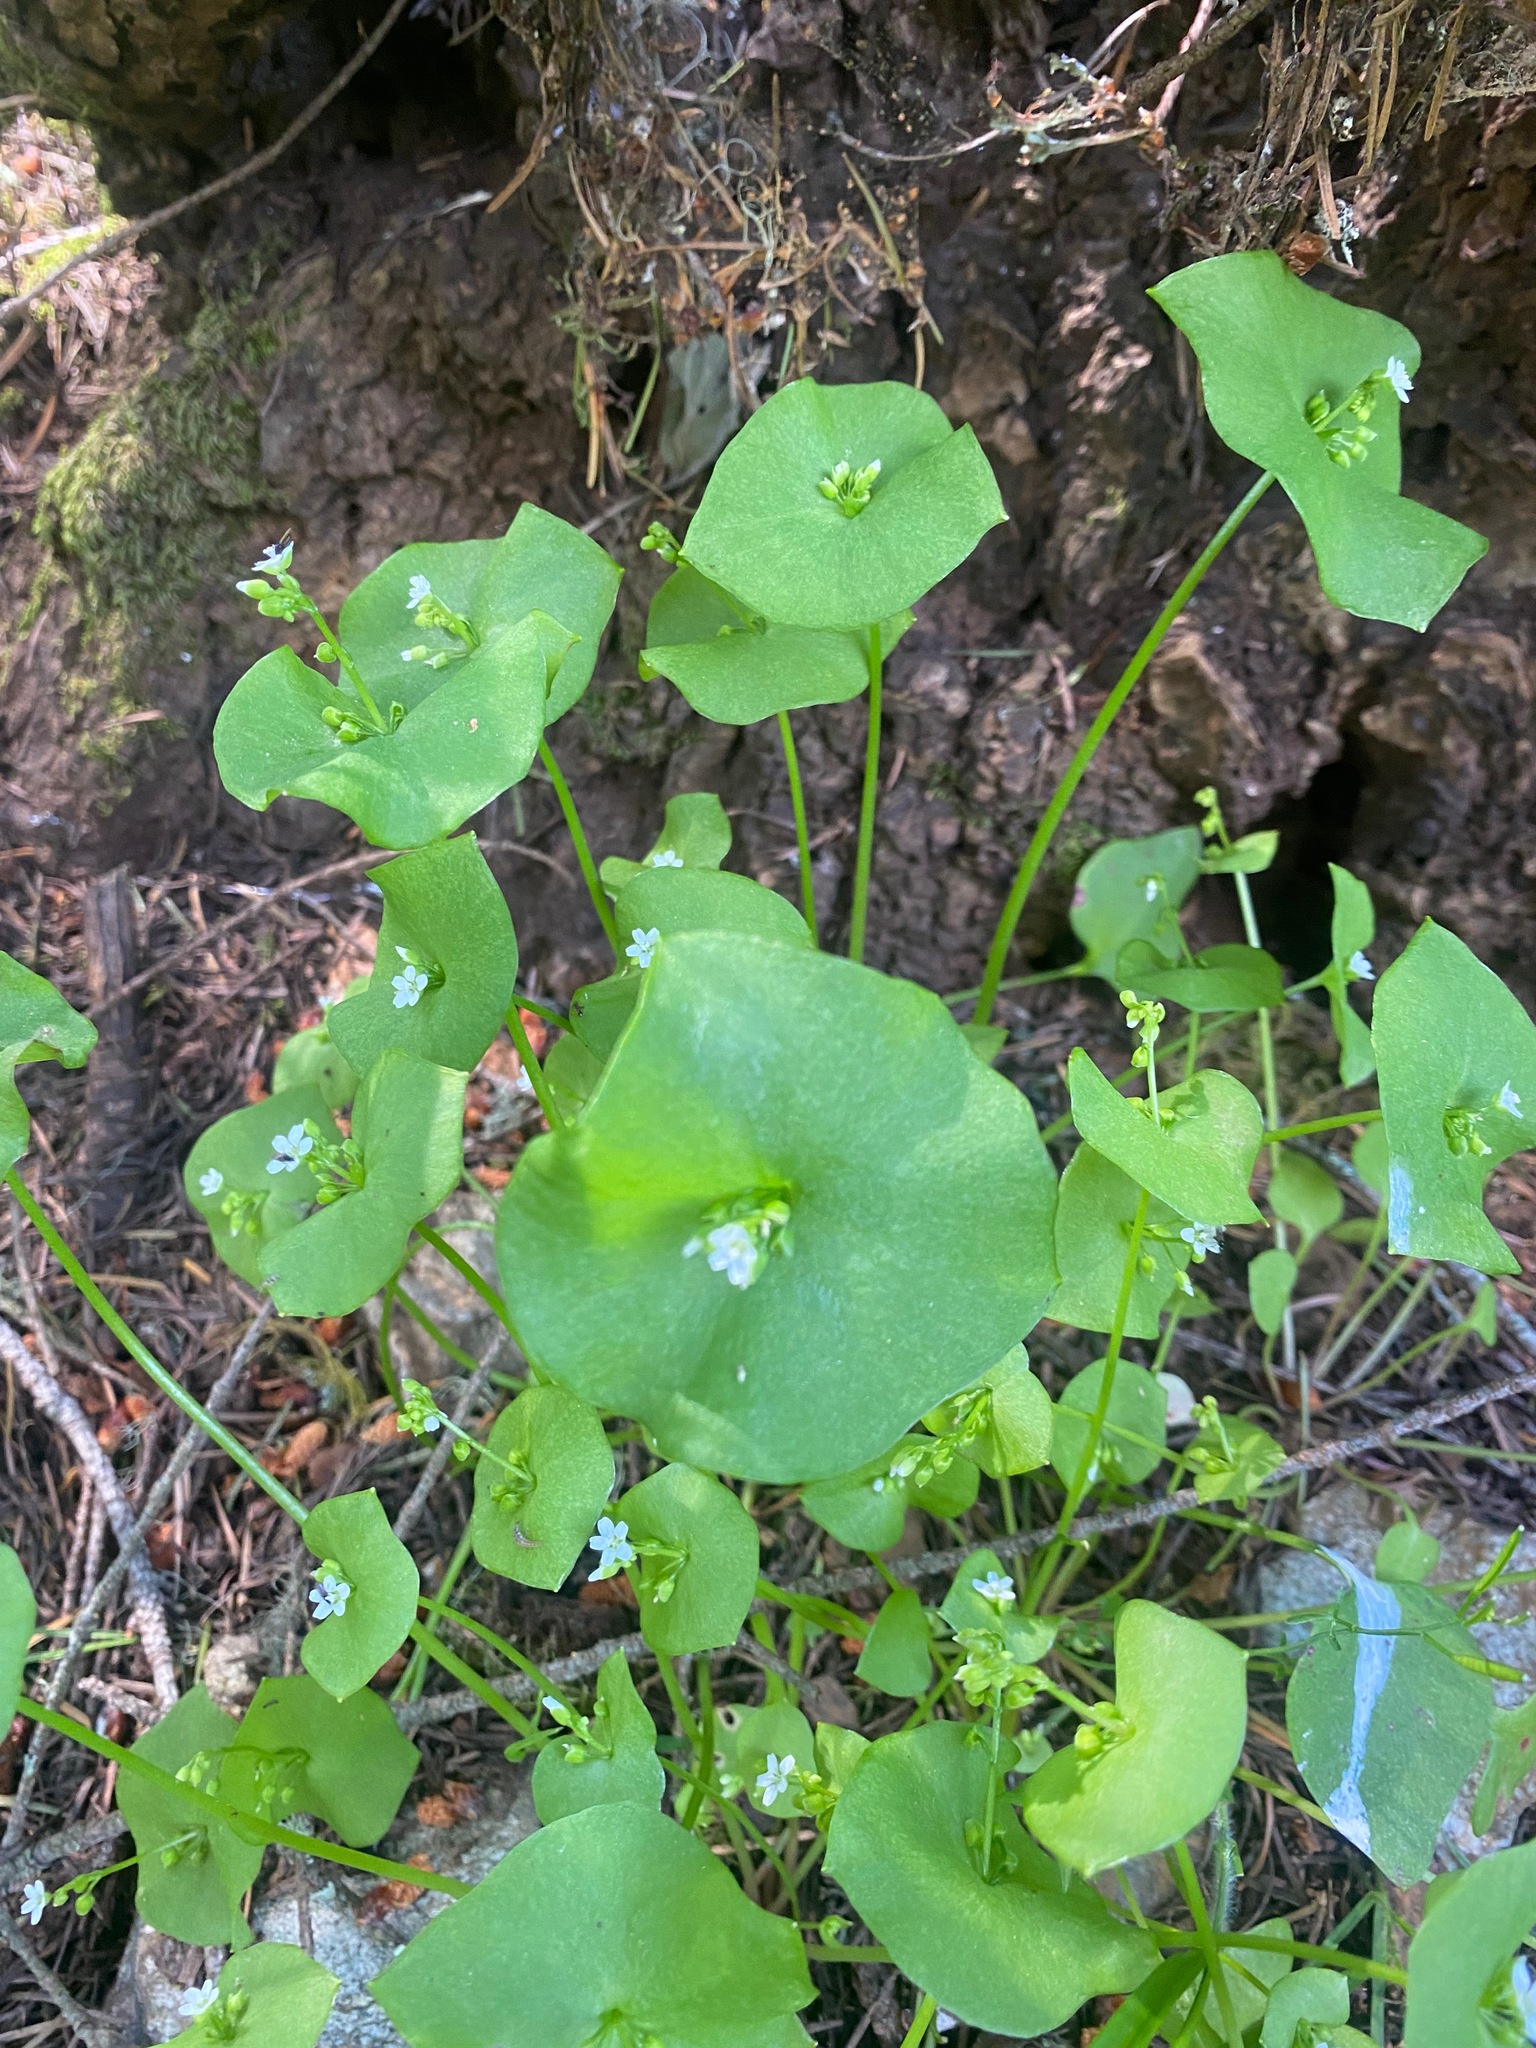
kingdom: Plantae
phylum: Tracheophyta
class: Magnoliopsida
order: Caryophyllales
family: Montiaceae
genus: Claytonia
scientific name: Claytonia perfoliata
